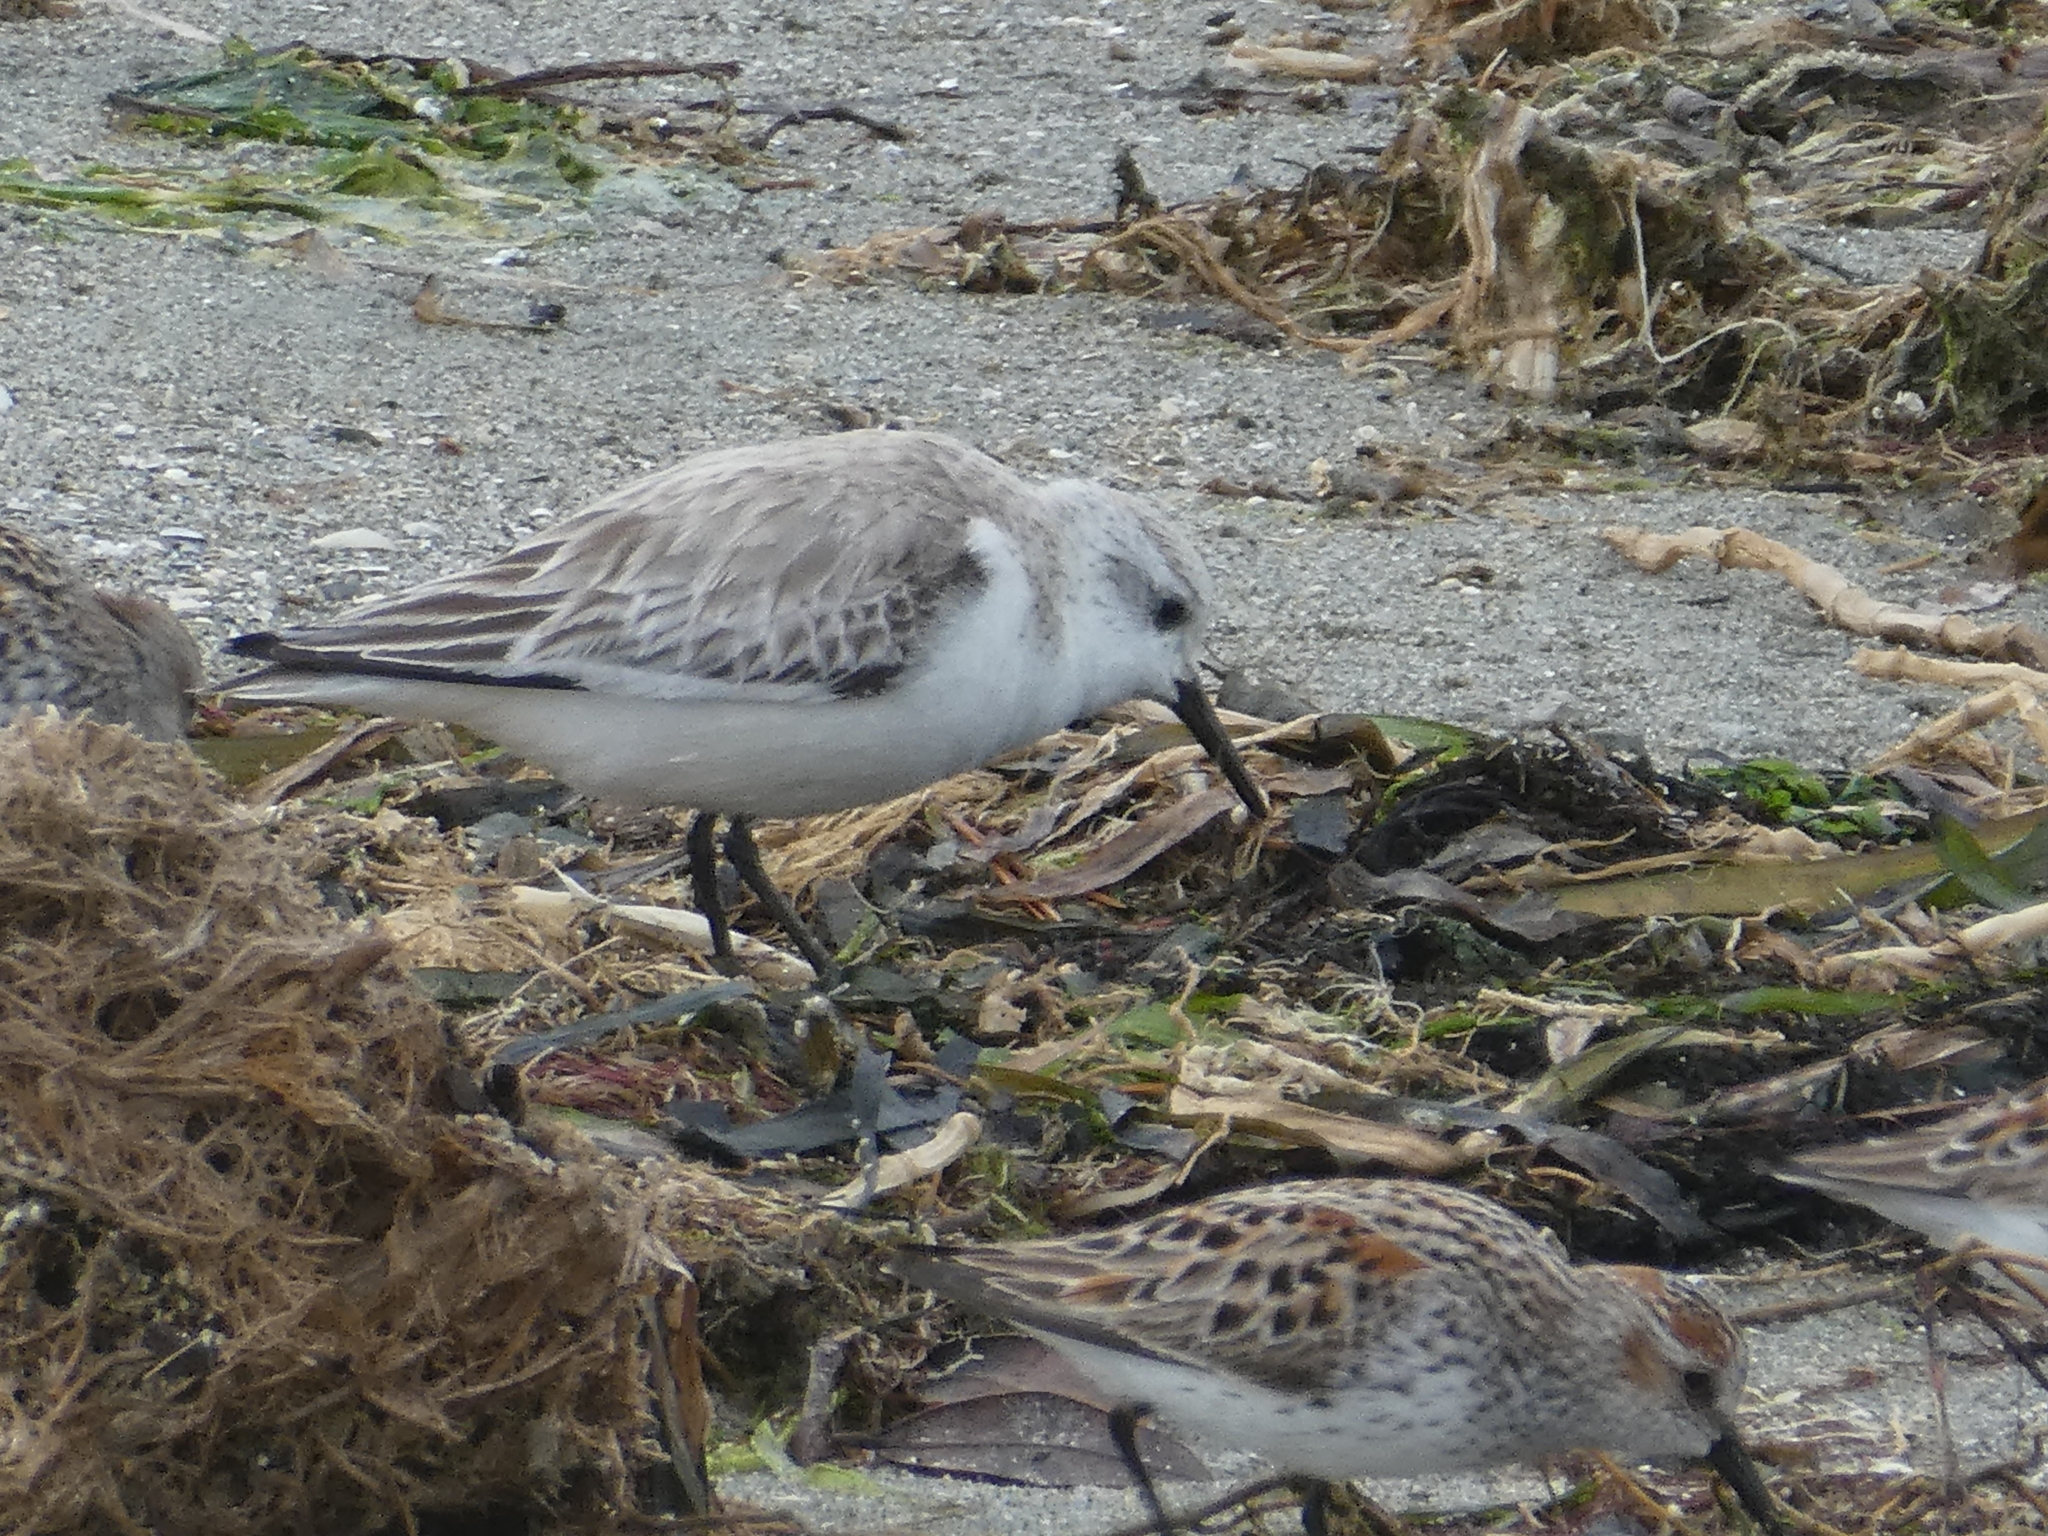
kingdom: Animalia
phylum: Chordata
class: Aves
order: Charadriiformes
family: Scolopacidae
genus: Calidris
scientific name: Calidris alba
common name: Sanderling
